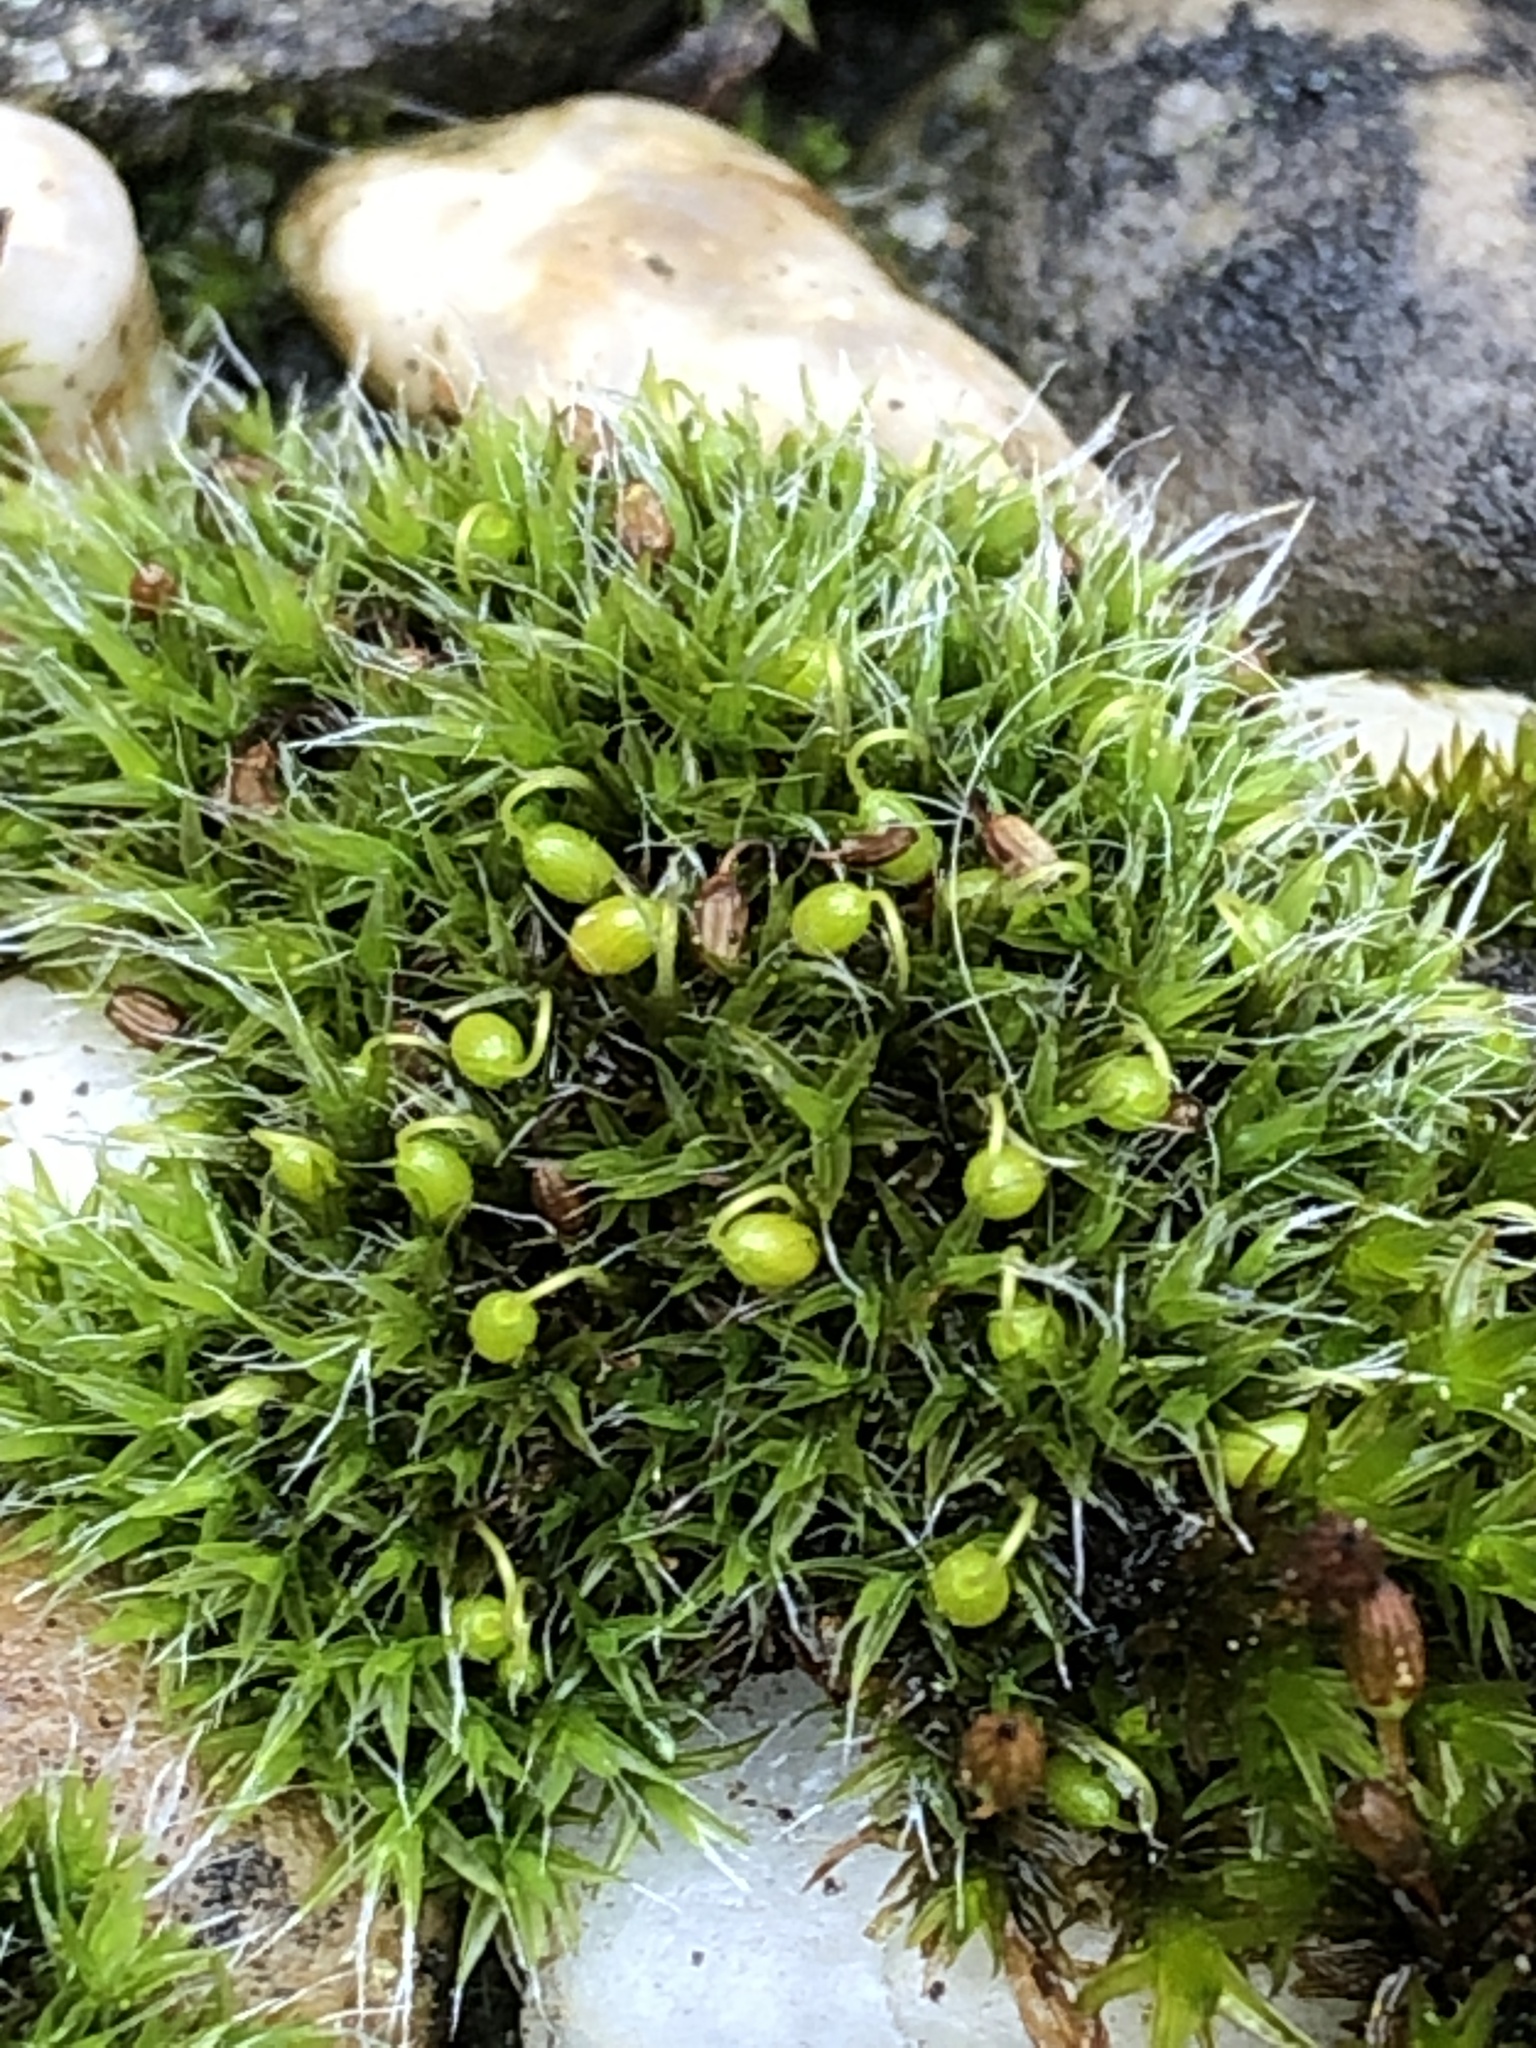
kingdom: Plantae
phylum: Bryophyta
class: Bryopsida
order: Grimmiales
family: Grimmiaceae
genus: Grimmia
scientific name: Grimmia pulvinata
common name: Grey-cushioned grimmia
